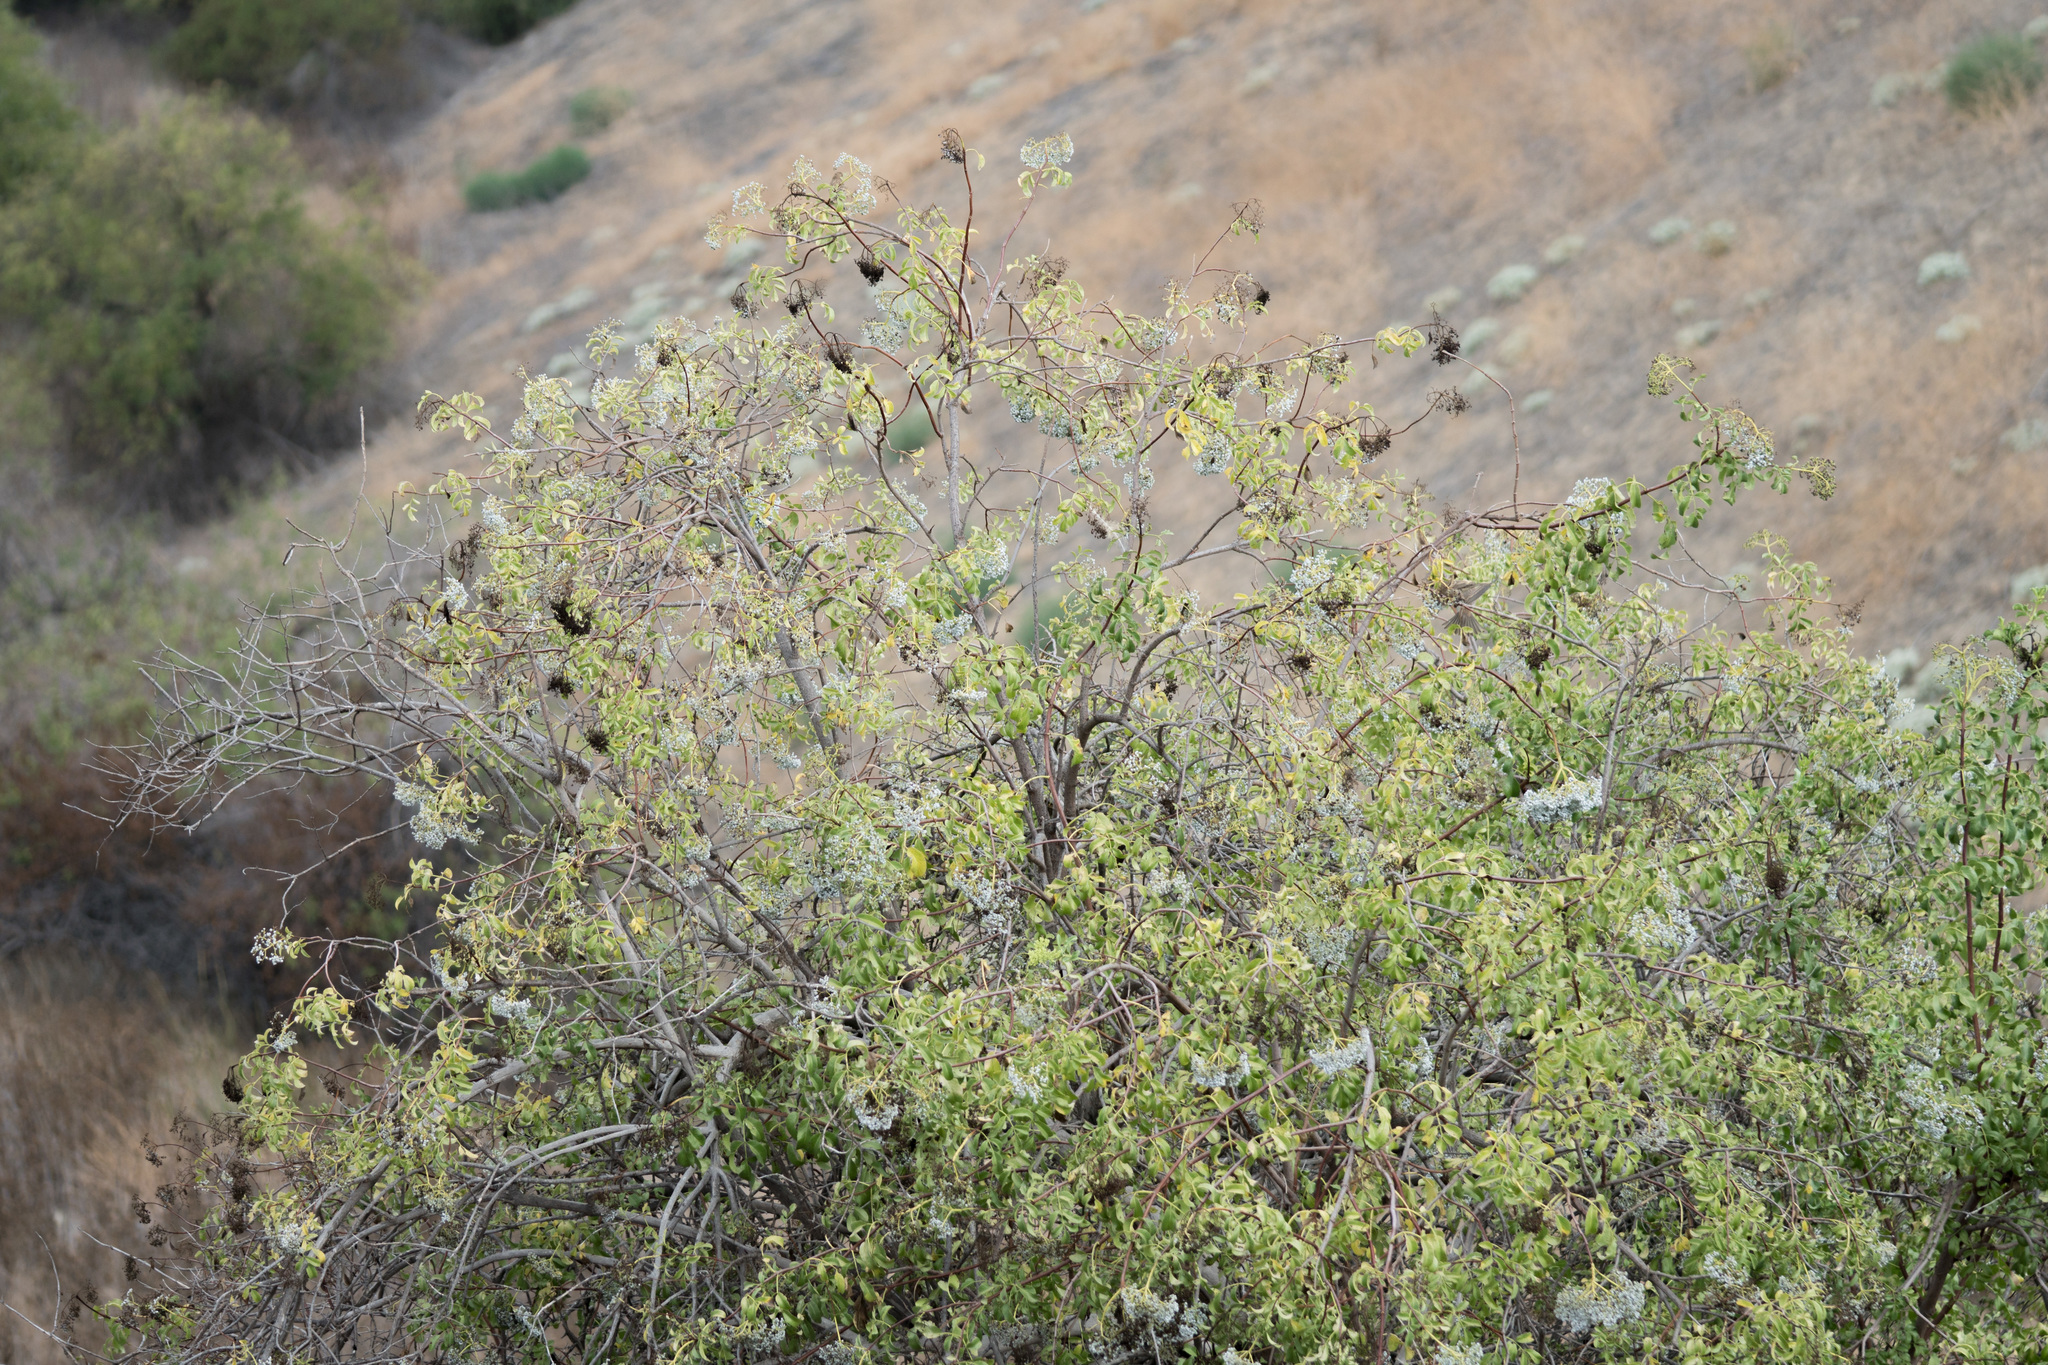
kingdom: Plantae
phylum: Tracheophyta
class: Magnoliopsida
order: Dipsacales
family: Viburnaceae
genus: Sambucus
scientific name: Sambucus cerulea
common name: Blue elder
